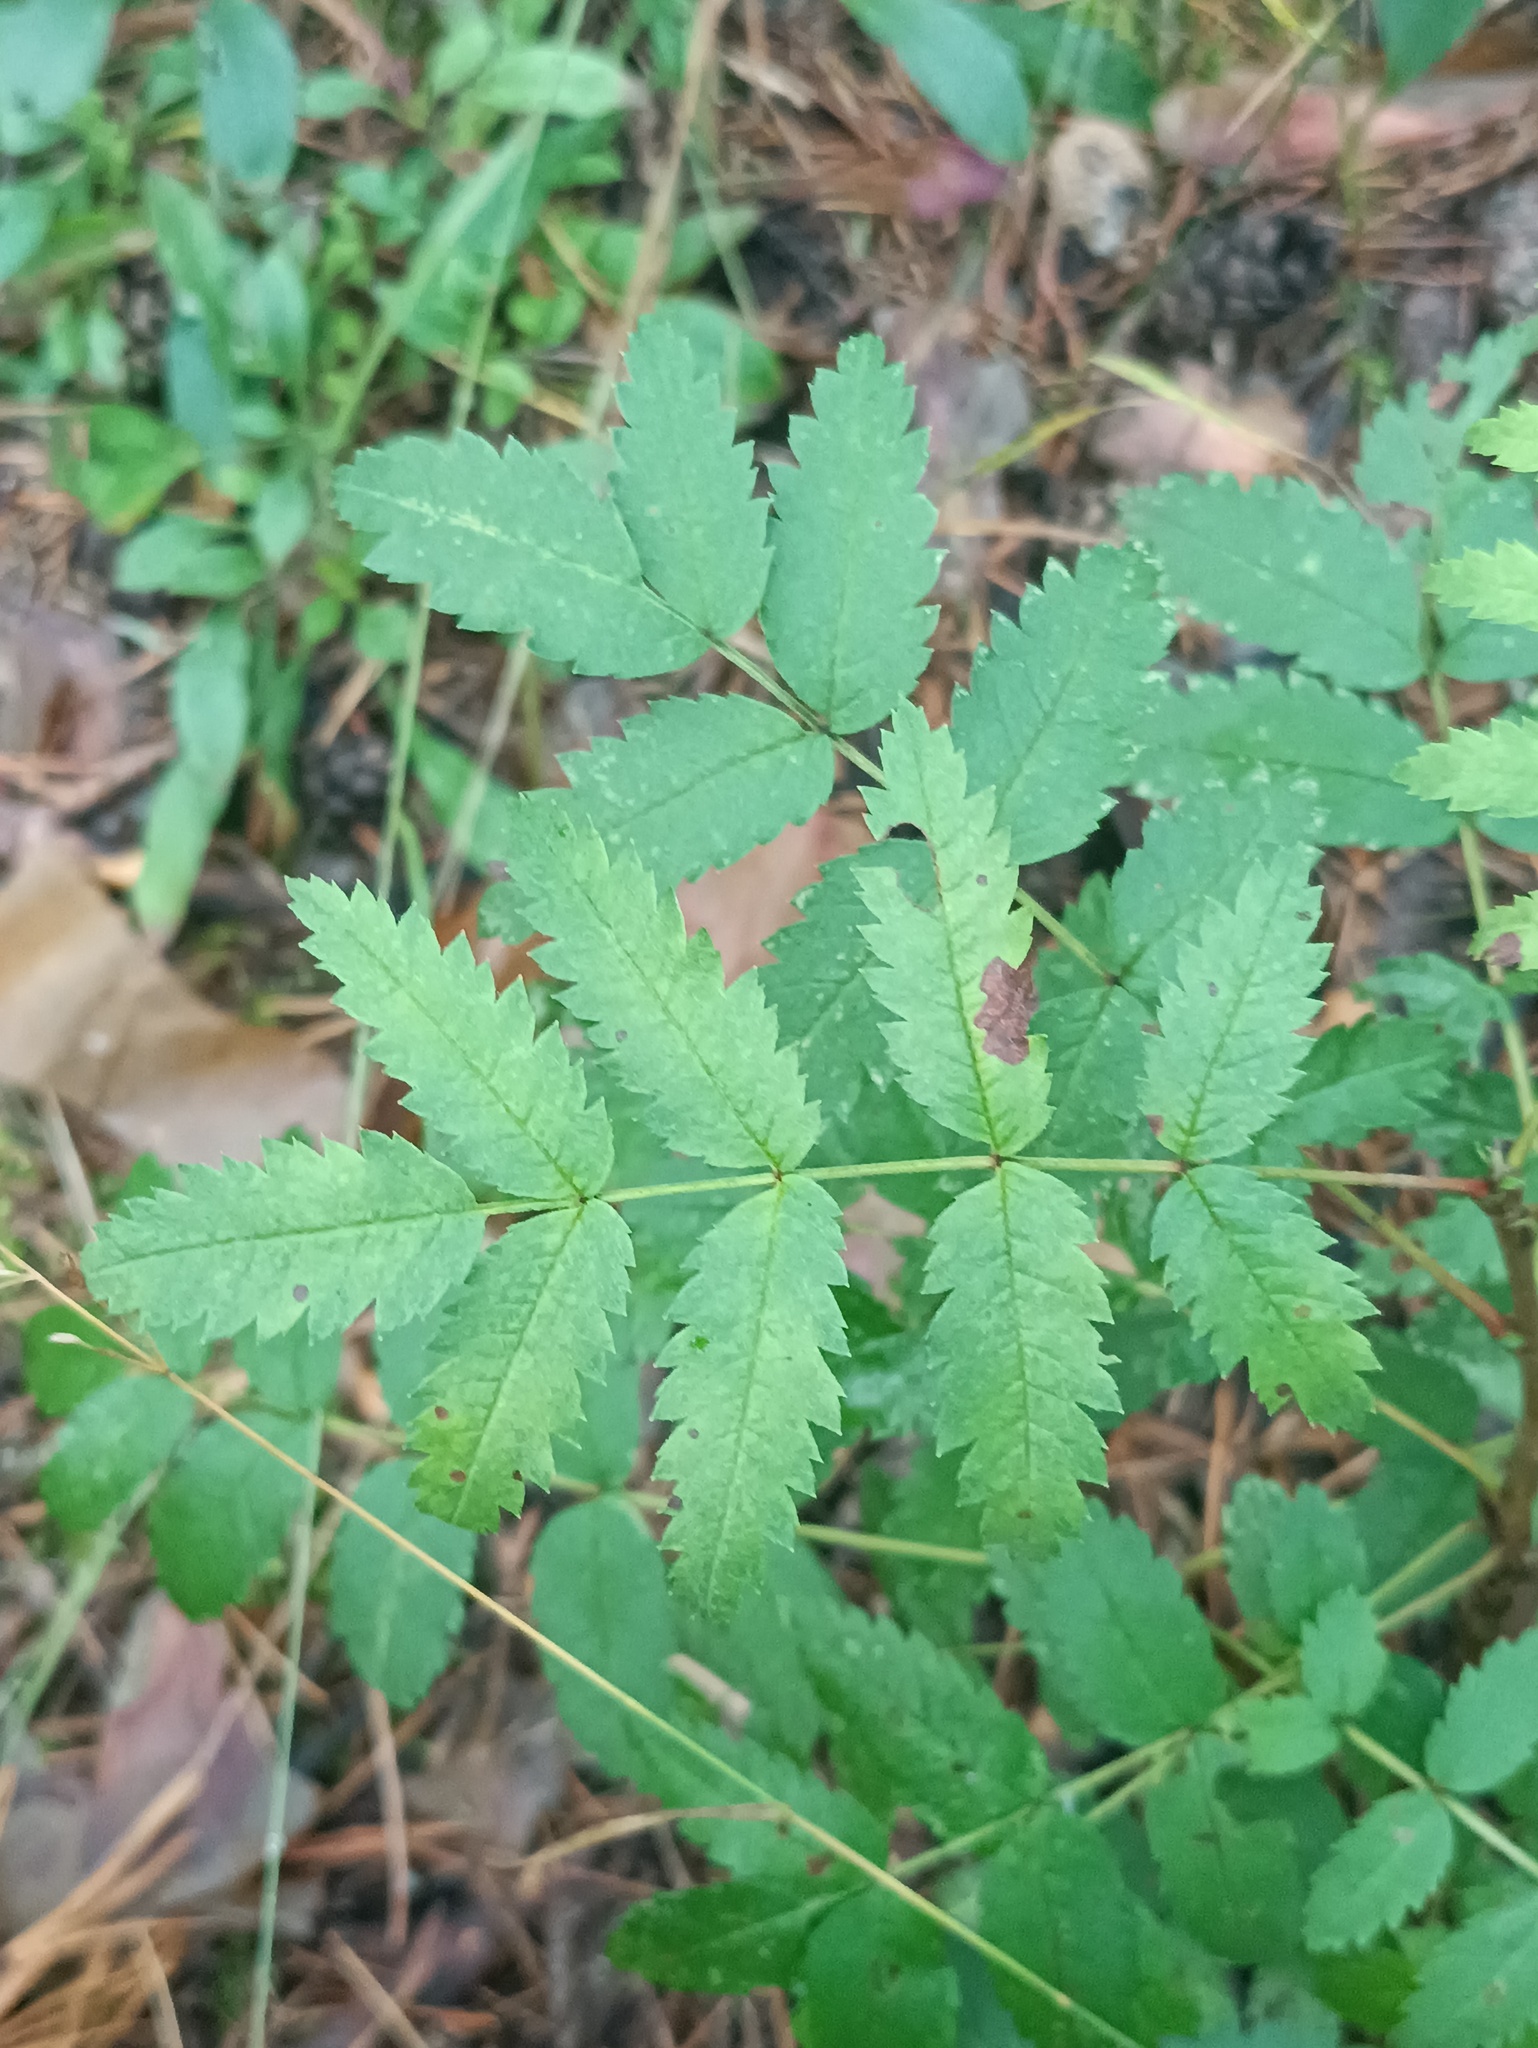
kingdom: Plantae
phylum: Tracheophyta
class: Magnoliopsida
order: Rosales
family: Rosaceae
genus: Sorbus
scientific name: Sorbus aucuparia
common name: Rowan
